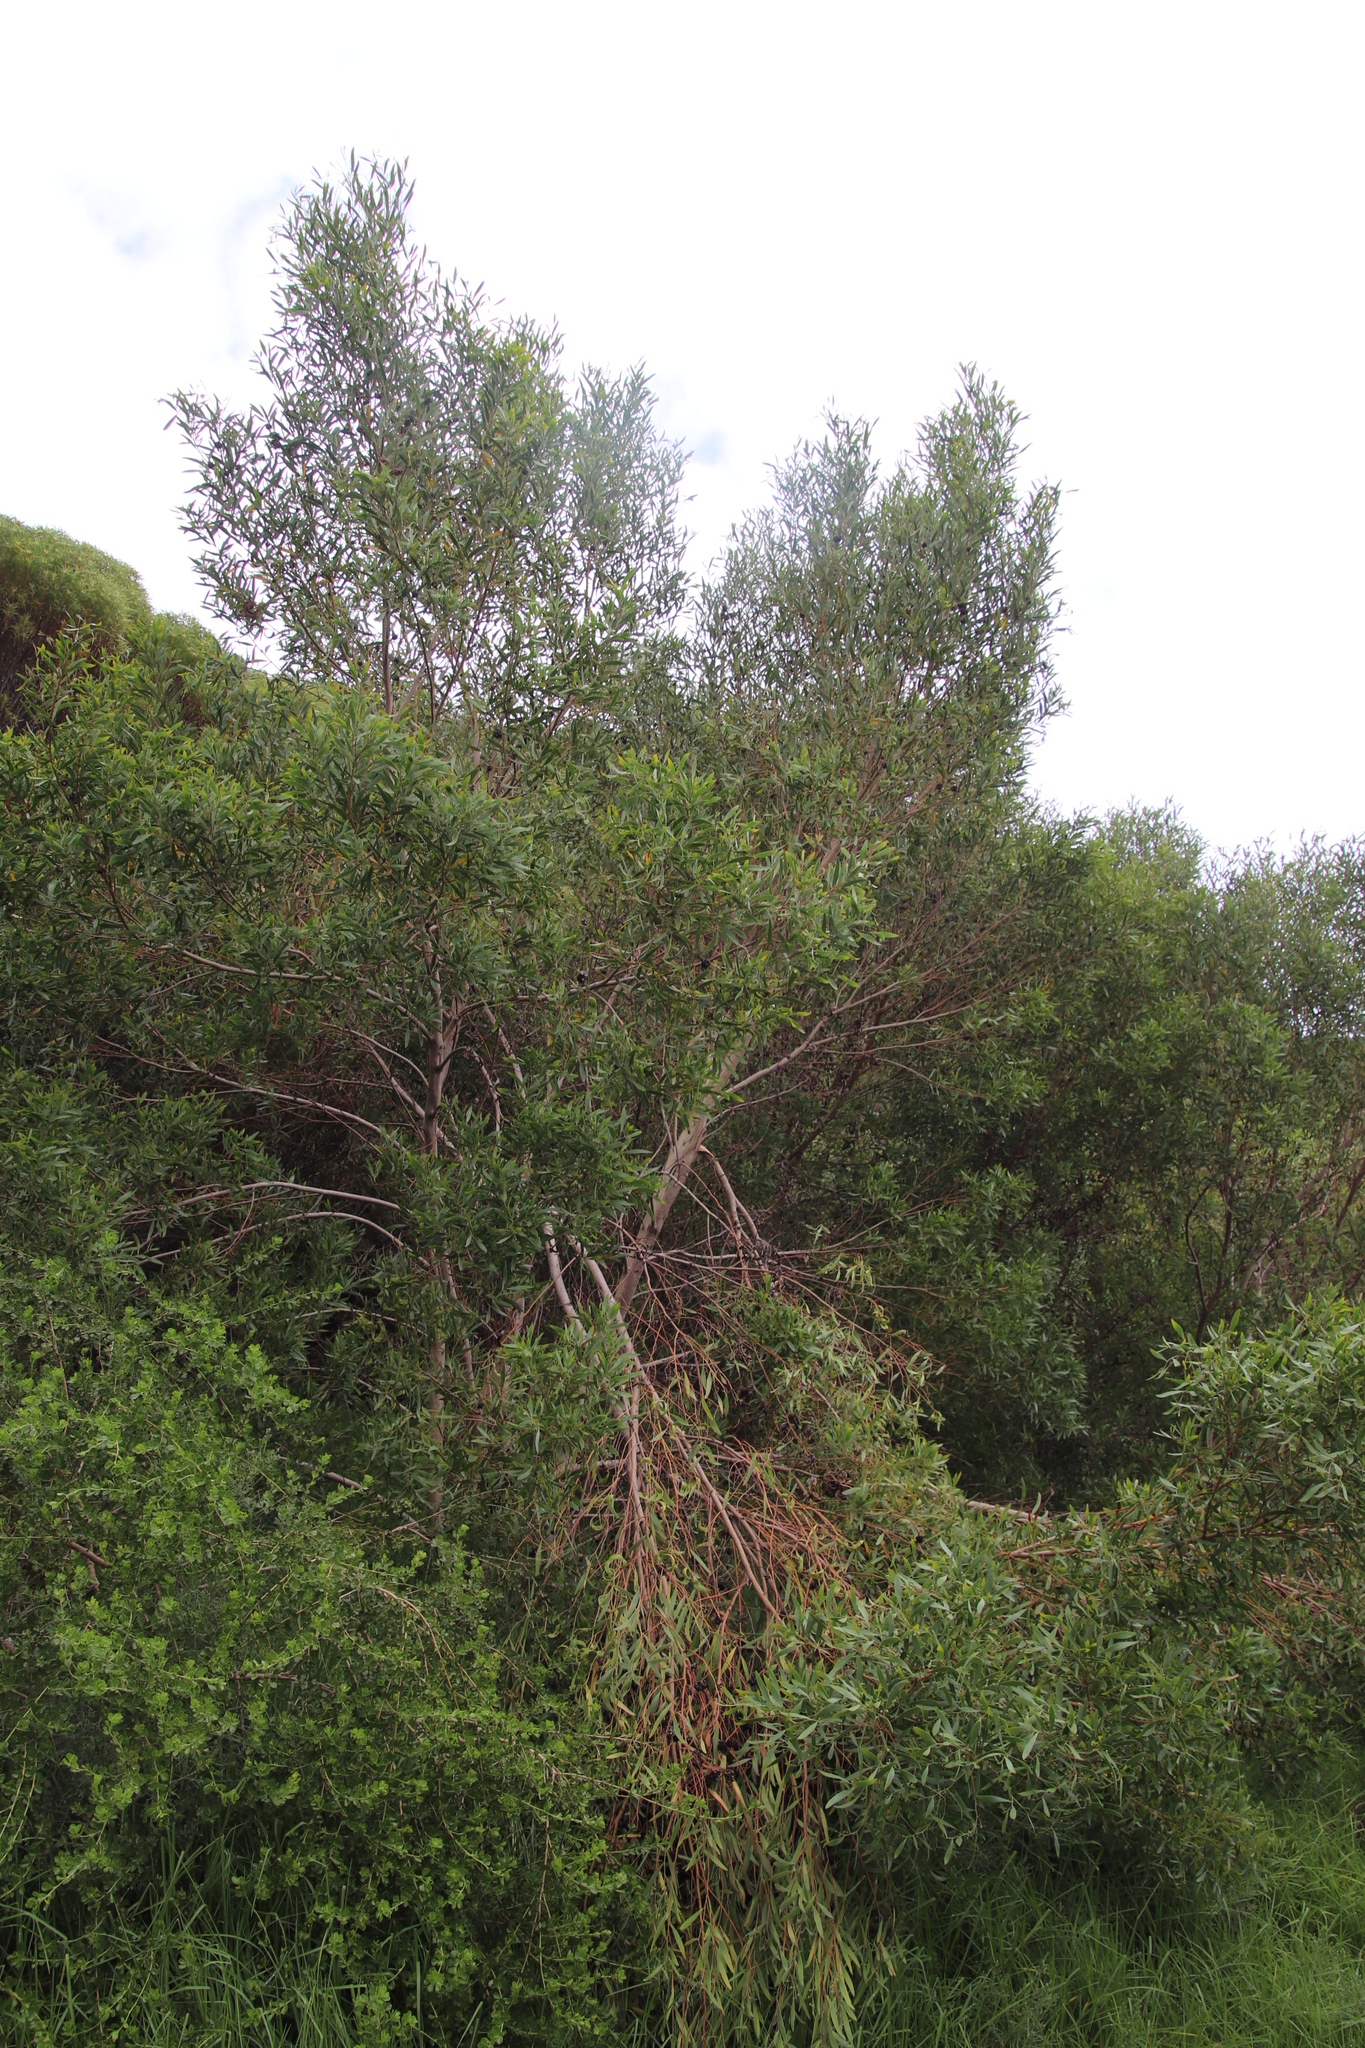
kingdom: Plantae
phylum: Tracheophyta
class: Magnoliopsida
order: Fabales
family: Fabaceae
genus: Acacia
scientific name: Acacia cyclops
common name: Coastal wattle
